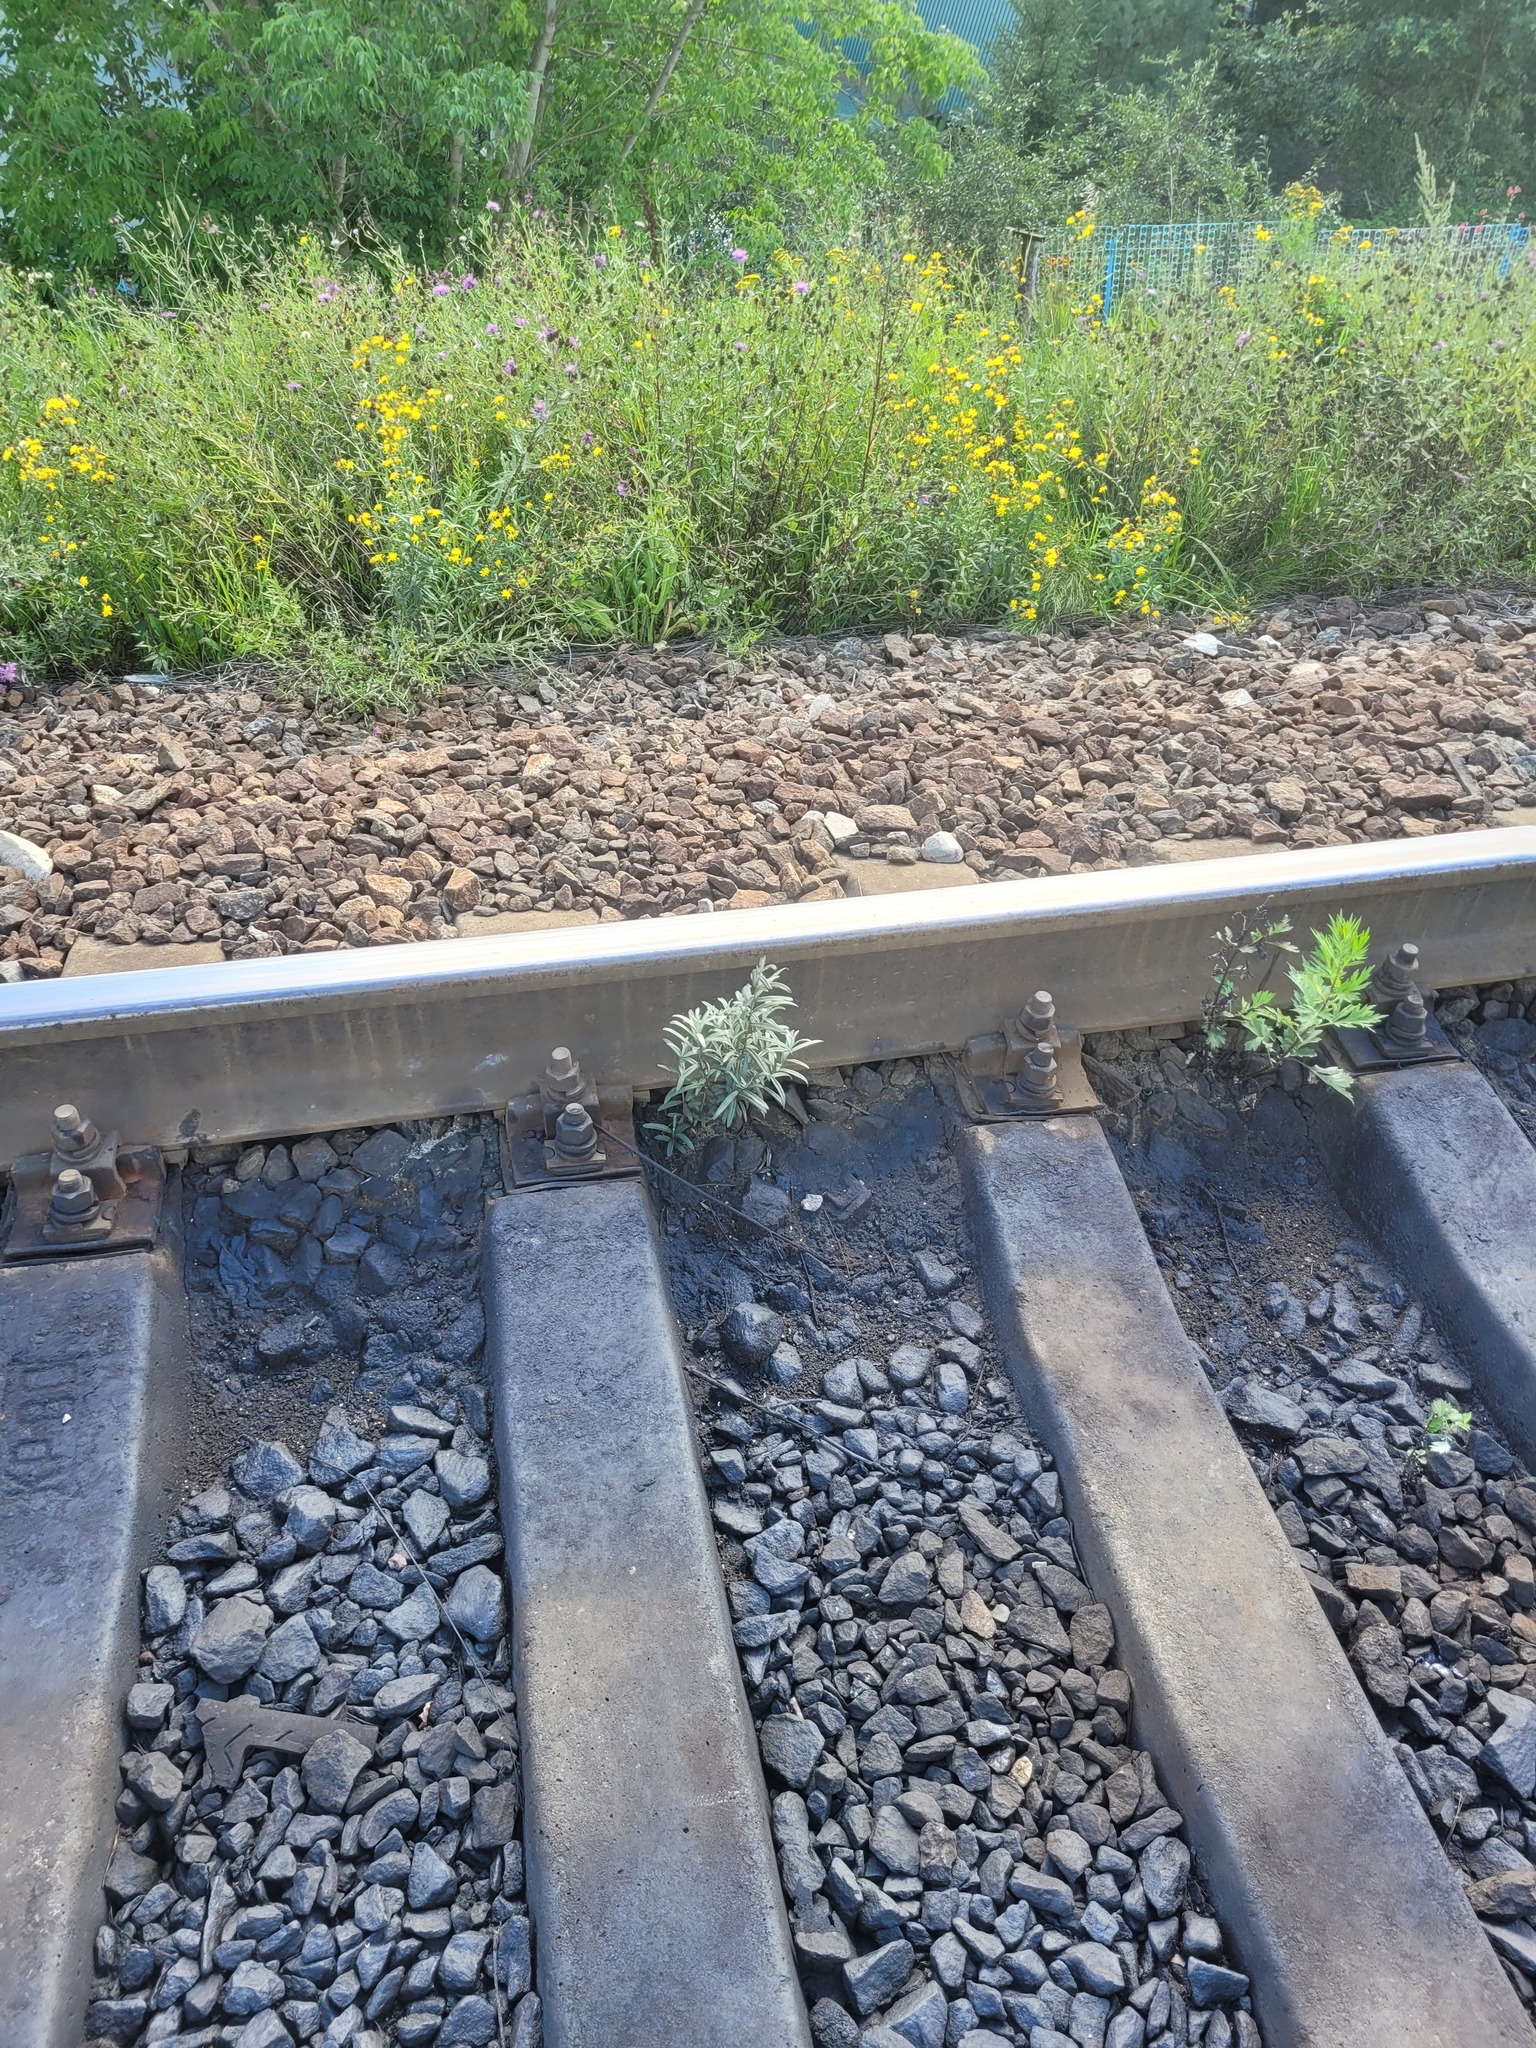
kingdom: Plantae
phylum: Tracheophyta
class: Magnoliopsida
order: Rosales
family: Elaeagnaceae
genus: Hippophae
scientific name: Hippophae rhamnoides
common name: Sea-buckthorn
